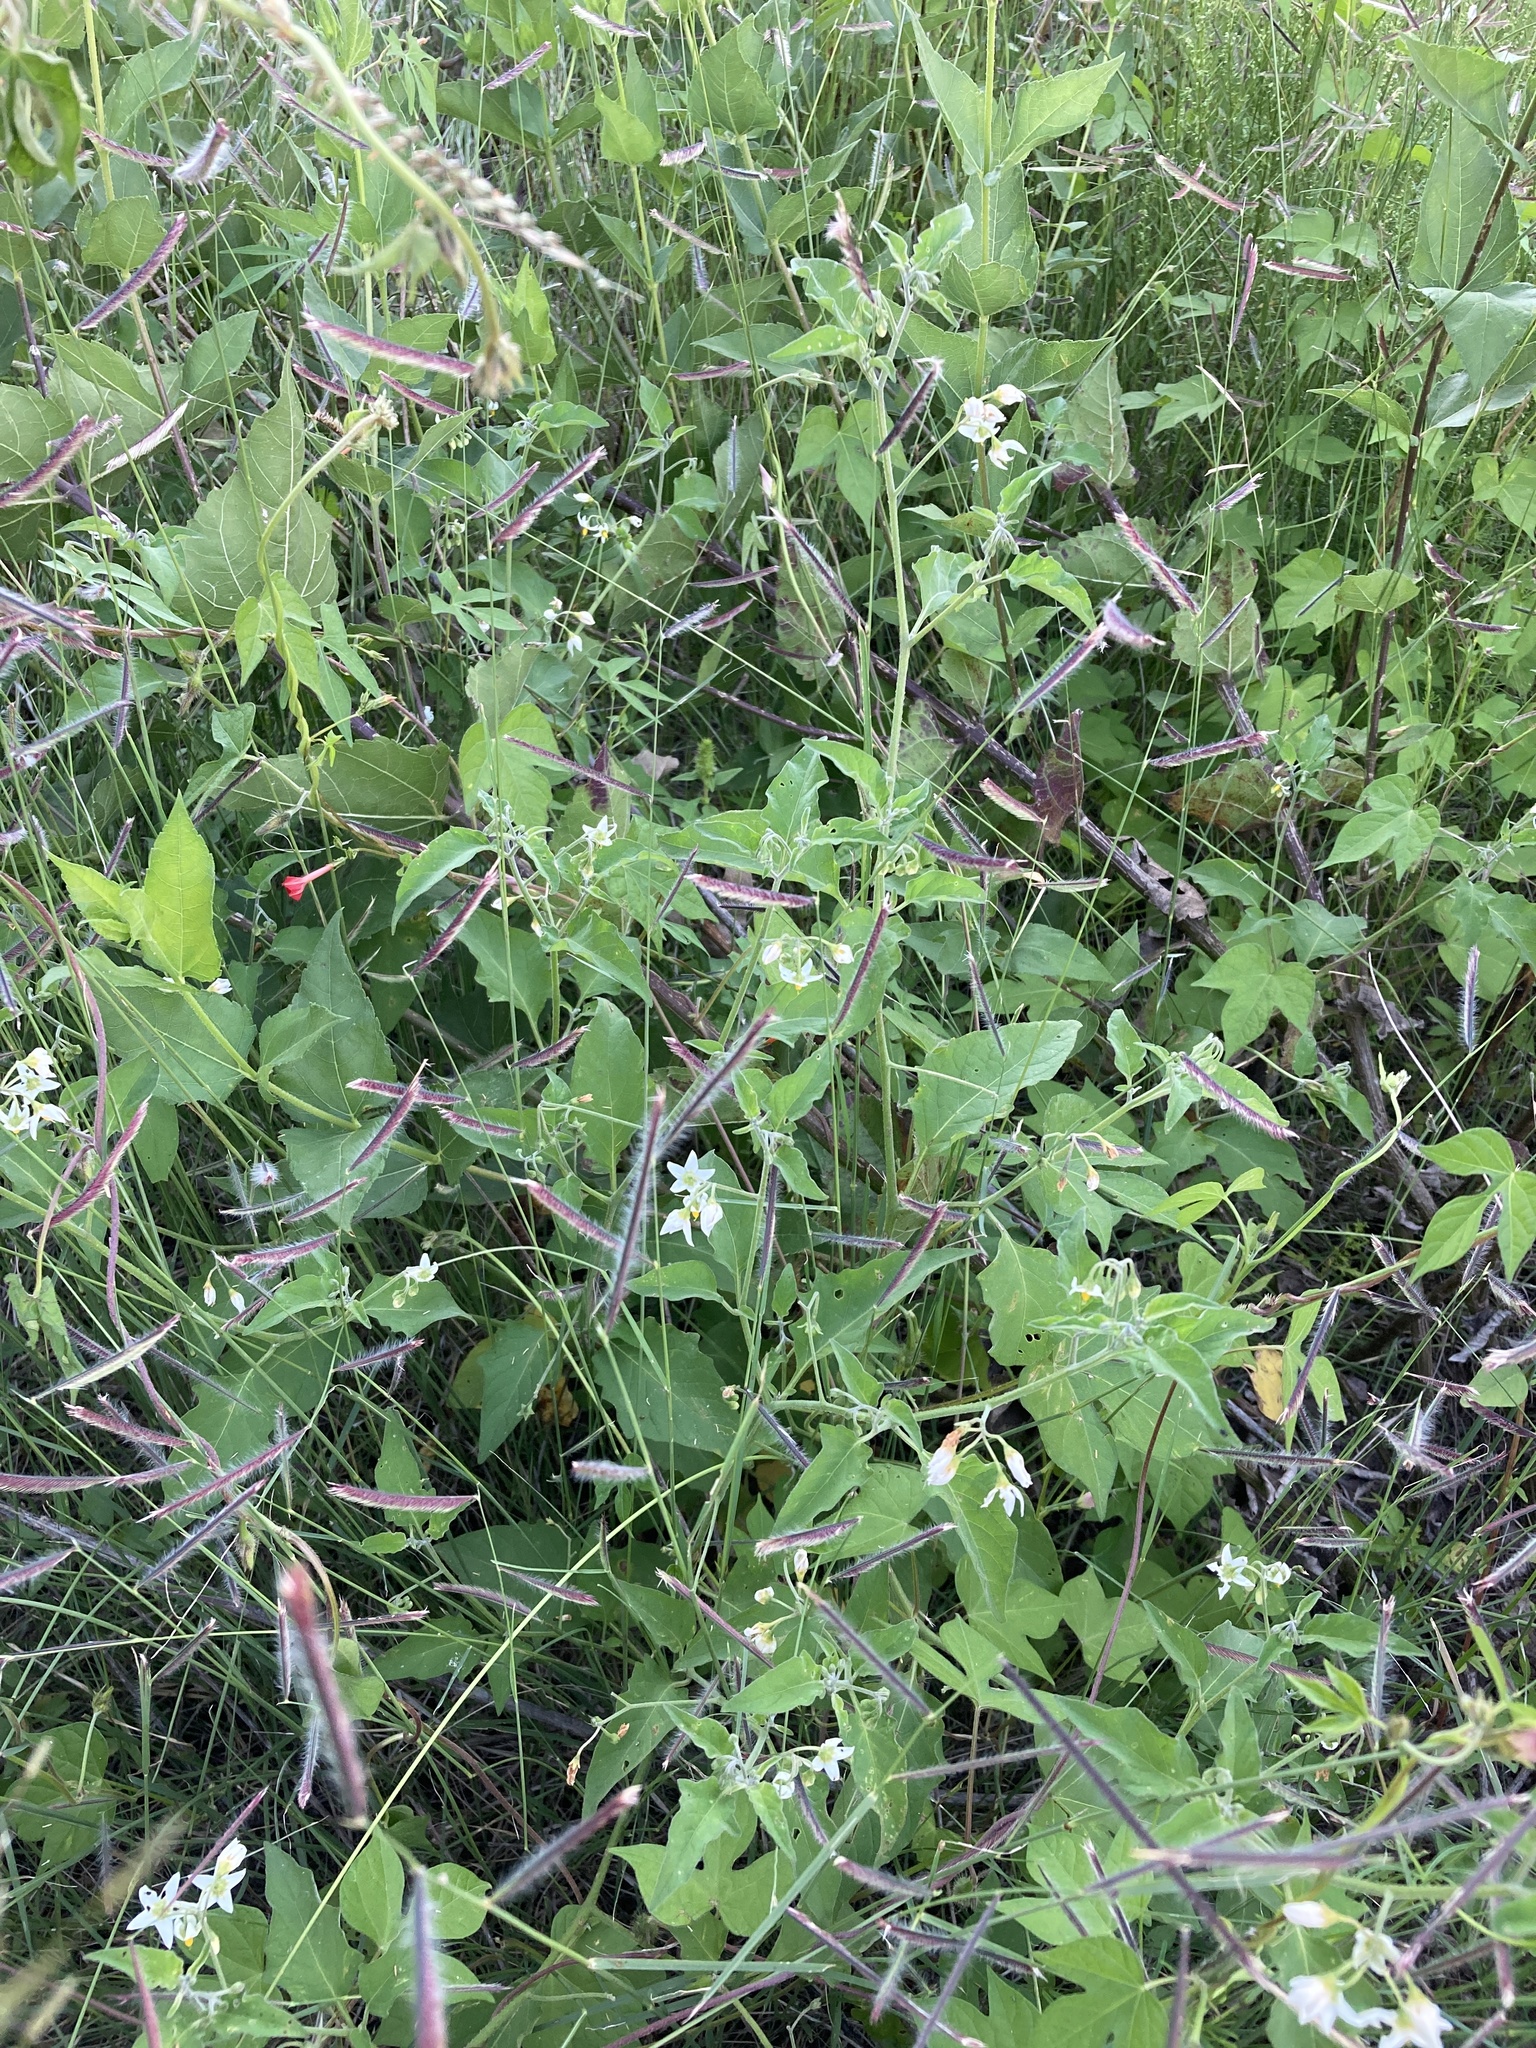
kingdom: Plantae
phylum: Tracheophyta
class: Magnoliopsida
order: Solanales
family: Solanaceae
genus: Solanum
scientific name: Solanum douglasii
